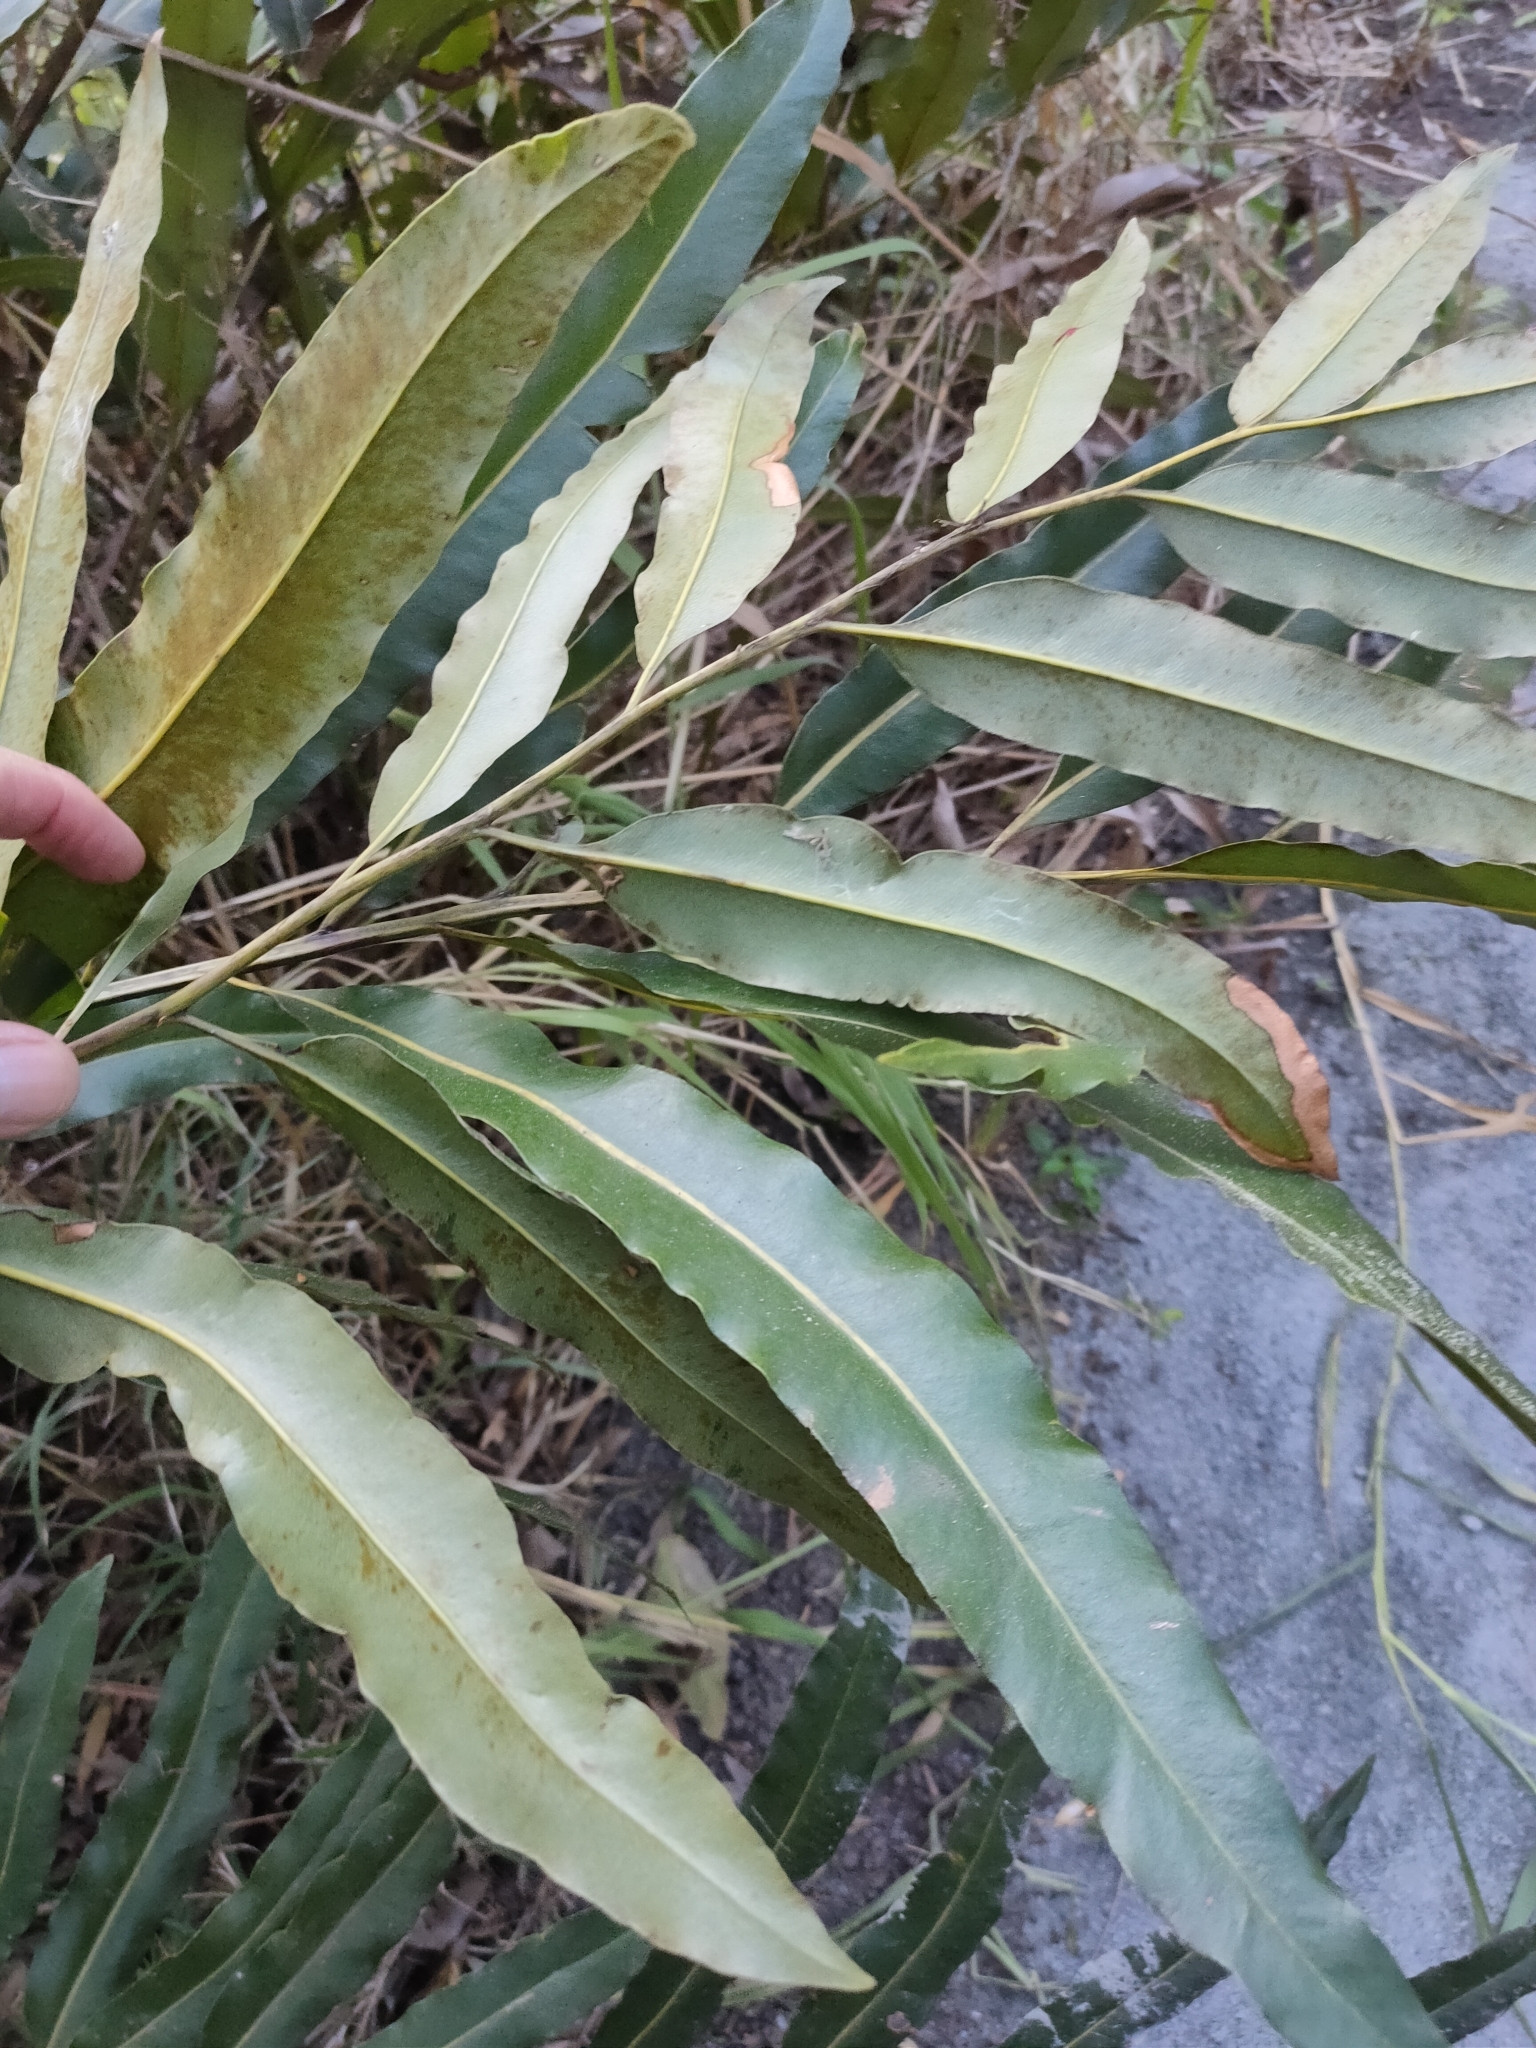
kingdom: Plantae
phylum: Tracheophyta
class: Polypodiopsida
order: Polypodiales
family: Pteridaceae
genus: Acrostichum
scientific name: Acrostichum speciosum
